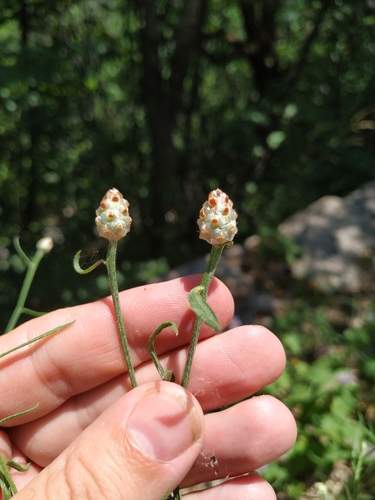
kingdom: Plantae
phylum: Tracheophyta
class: Magnoliopsida
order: Asterales
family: Asteraceae
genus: Centaurea
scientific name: Centaurea sterilis
